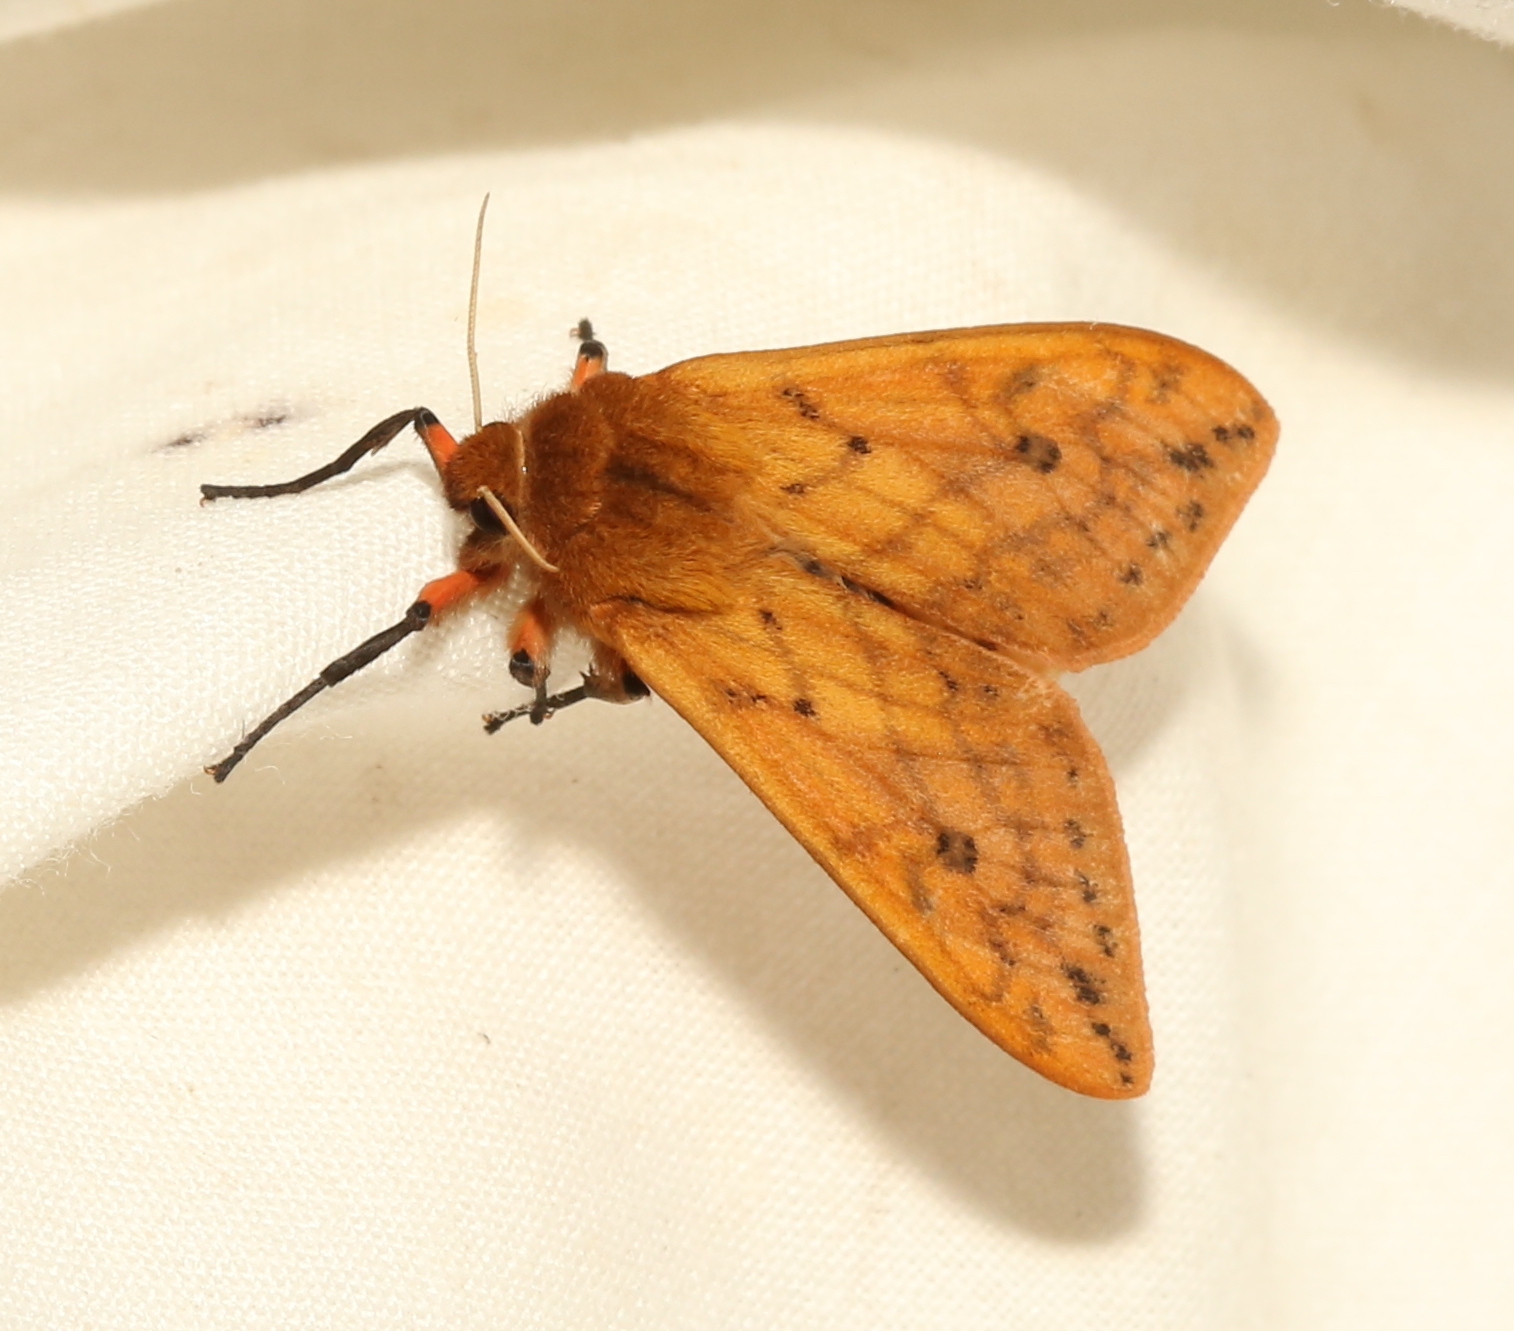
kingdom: Animalia
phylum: Arthropoda
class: Insecta
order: Lepidoptera
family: Erebidae
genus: Pyrrharctia
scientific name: Pyrrharctia isabella
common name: Isabella tiger moth
